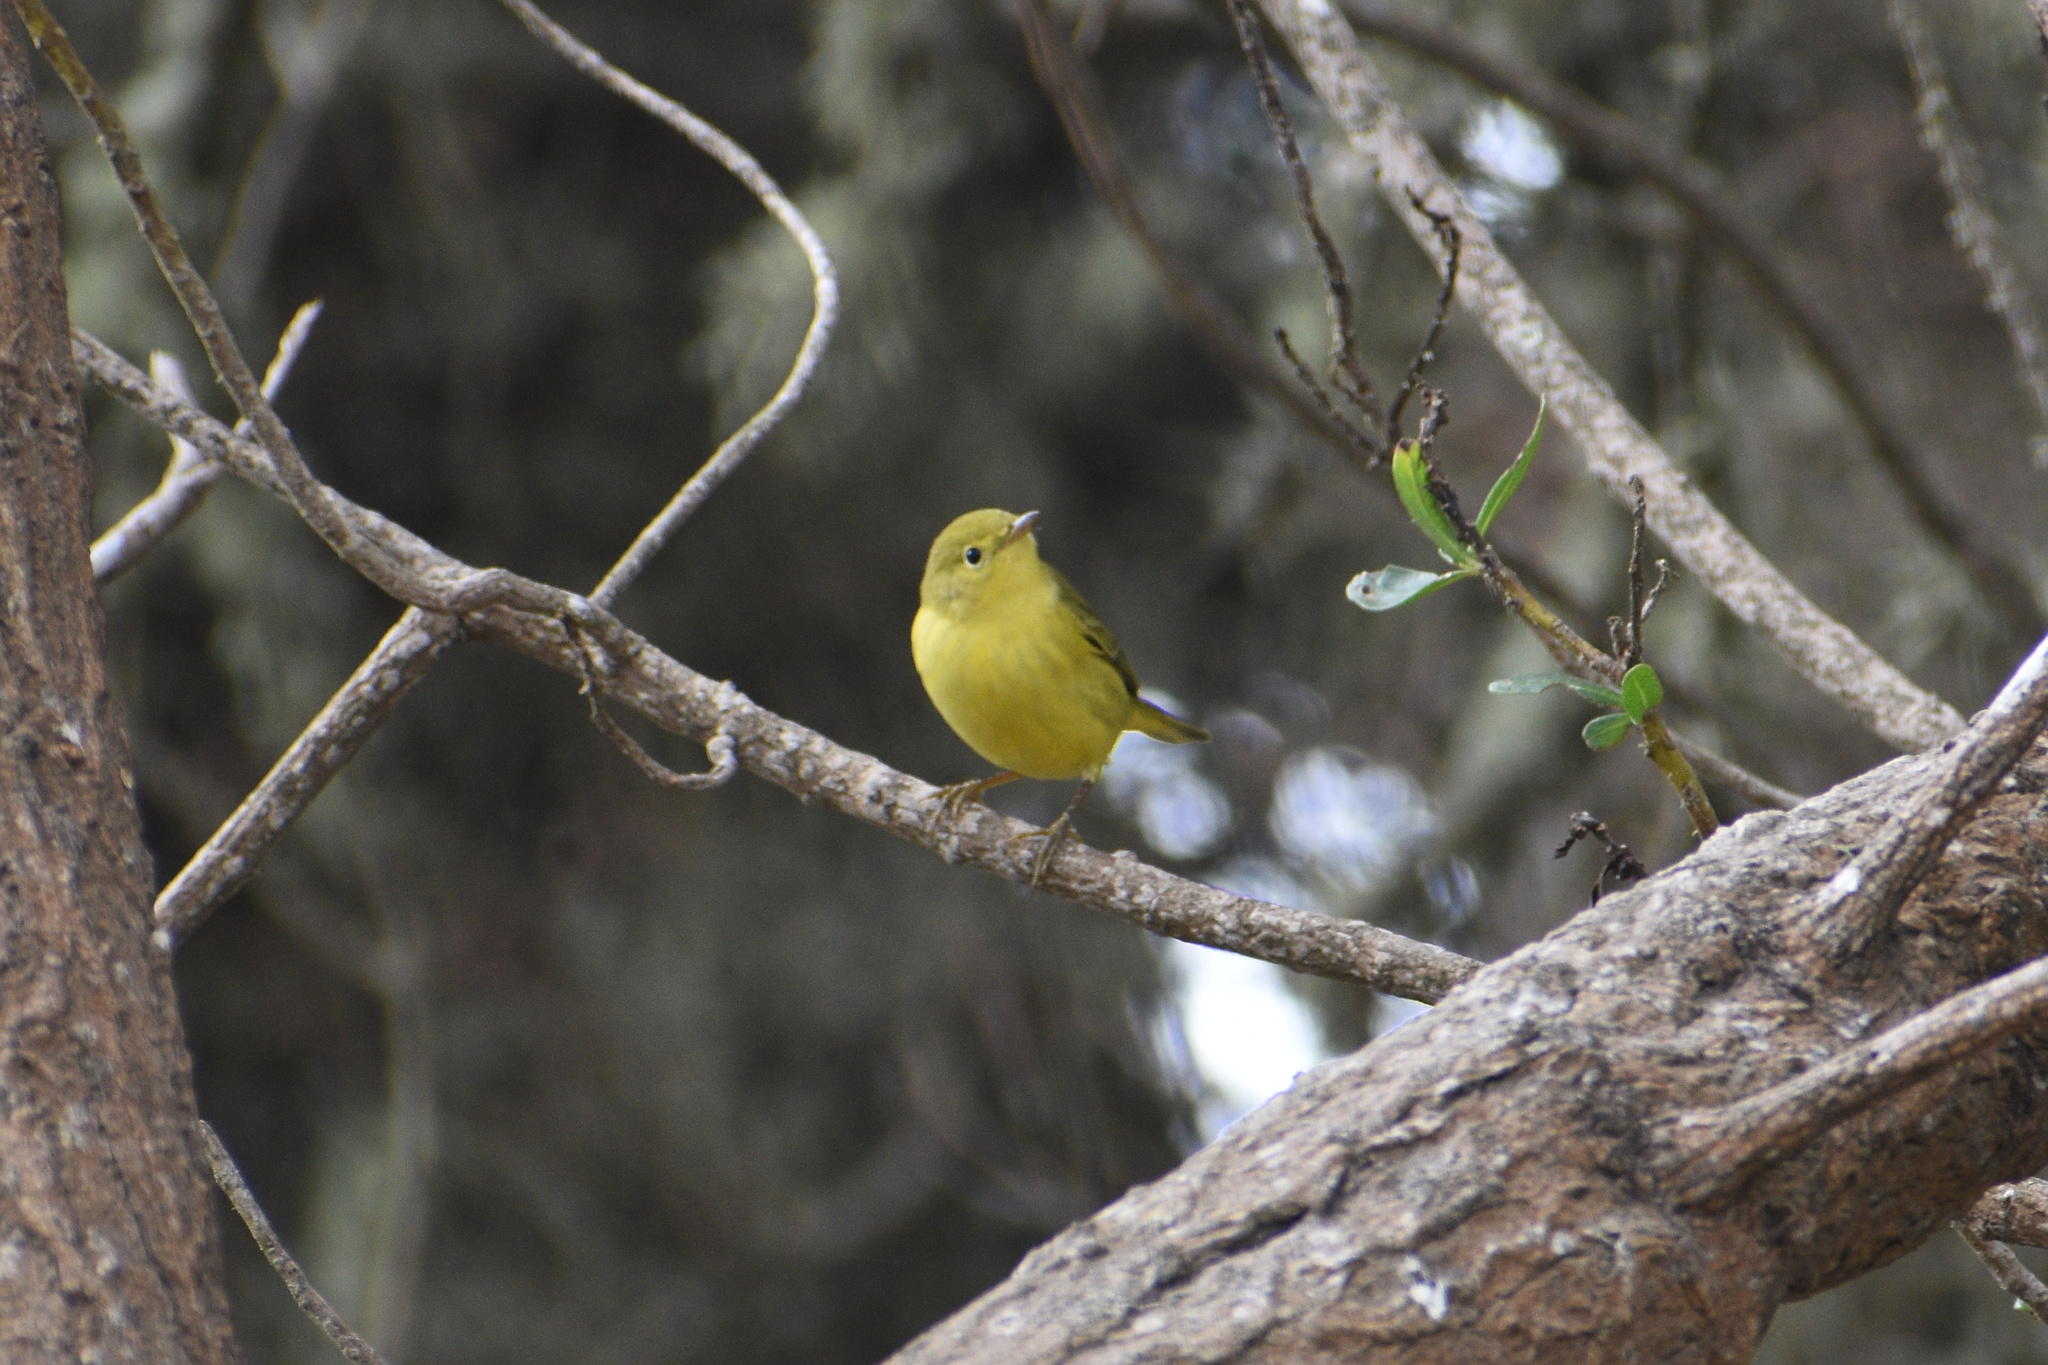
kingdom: Animalia
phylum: Chordata
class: Aves
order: Passeriformes
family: Parulidae
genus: Setophaga
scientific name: Setophaga petechia
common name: Yellow warbler
